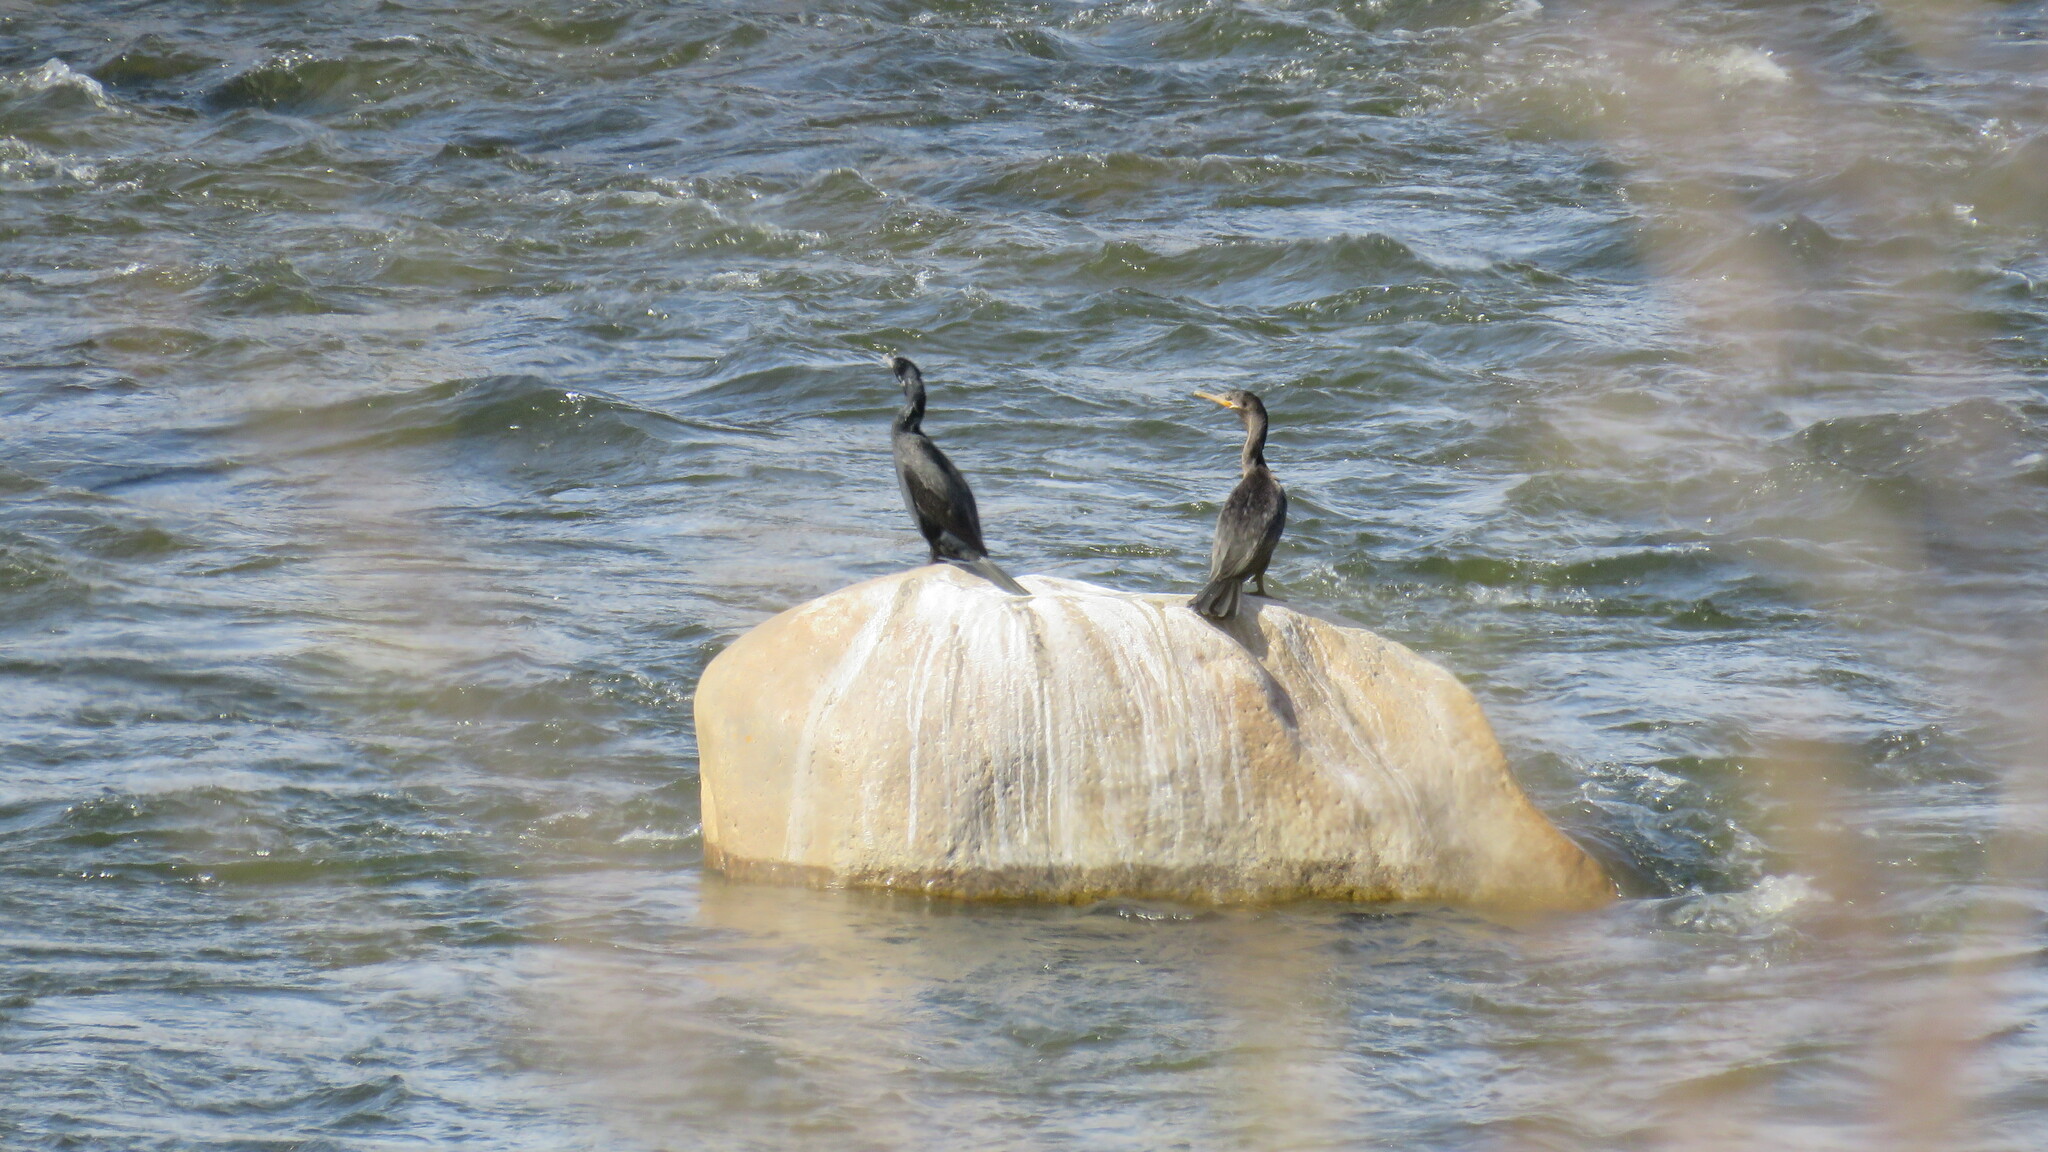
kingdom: Animalia
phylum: Chordata
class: Aves
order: Suliformes
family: Phalacrocoracidae
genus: Phalacrocorax
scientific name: Phalacrocorax brasilianus
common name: Neotropic cormorant
